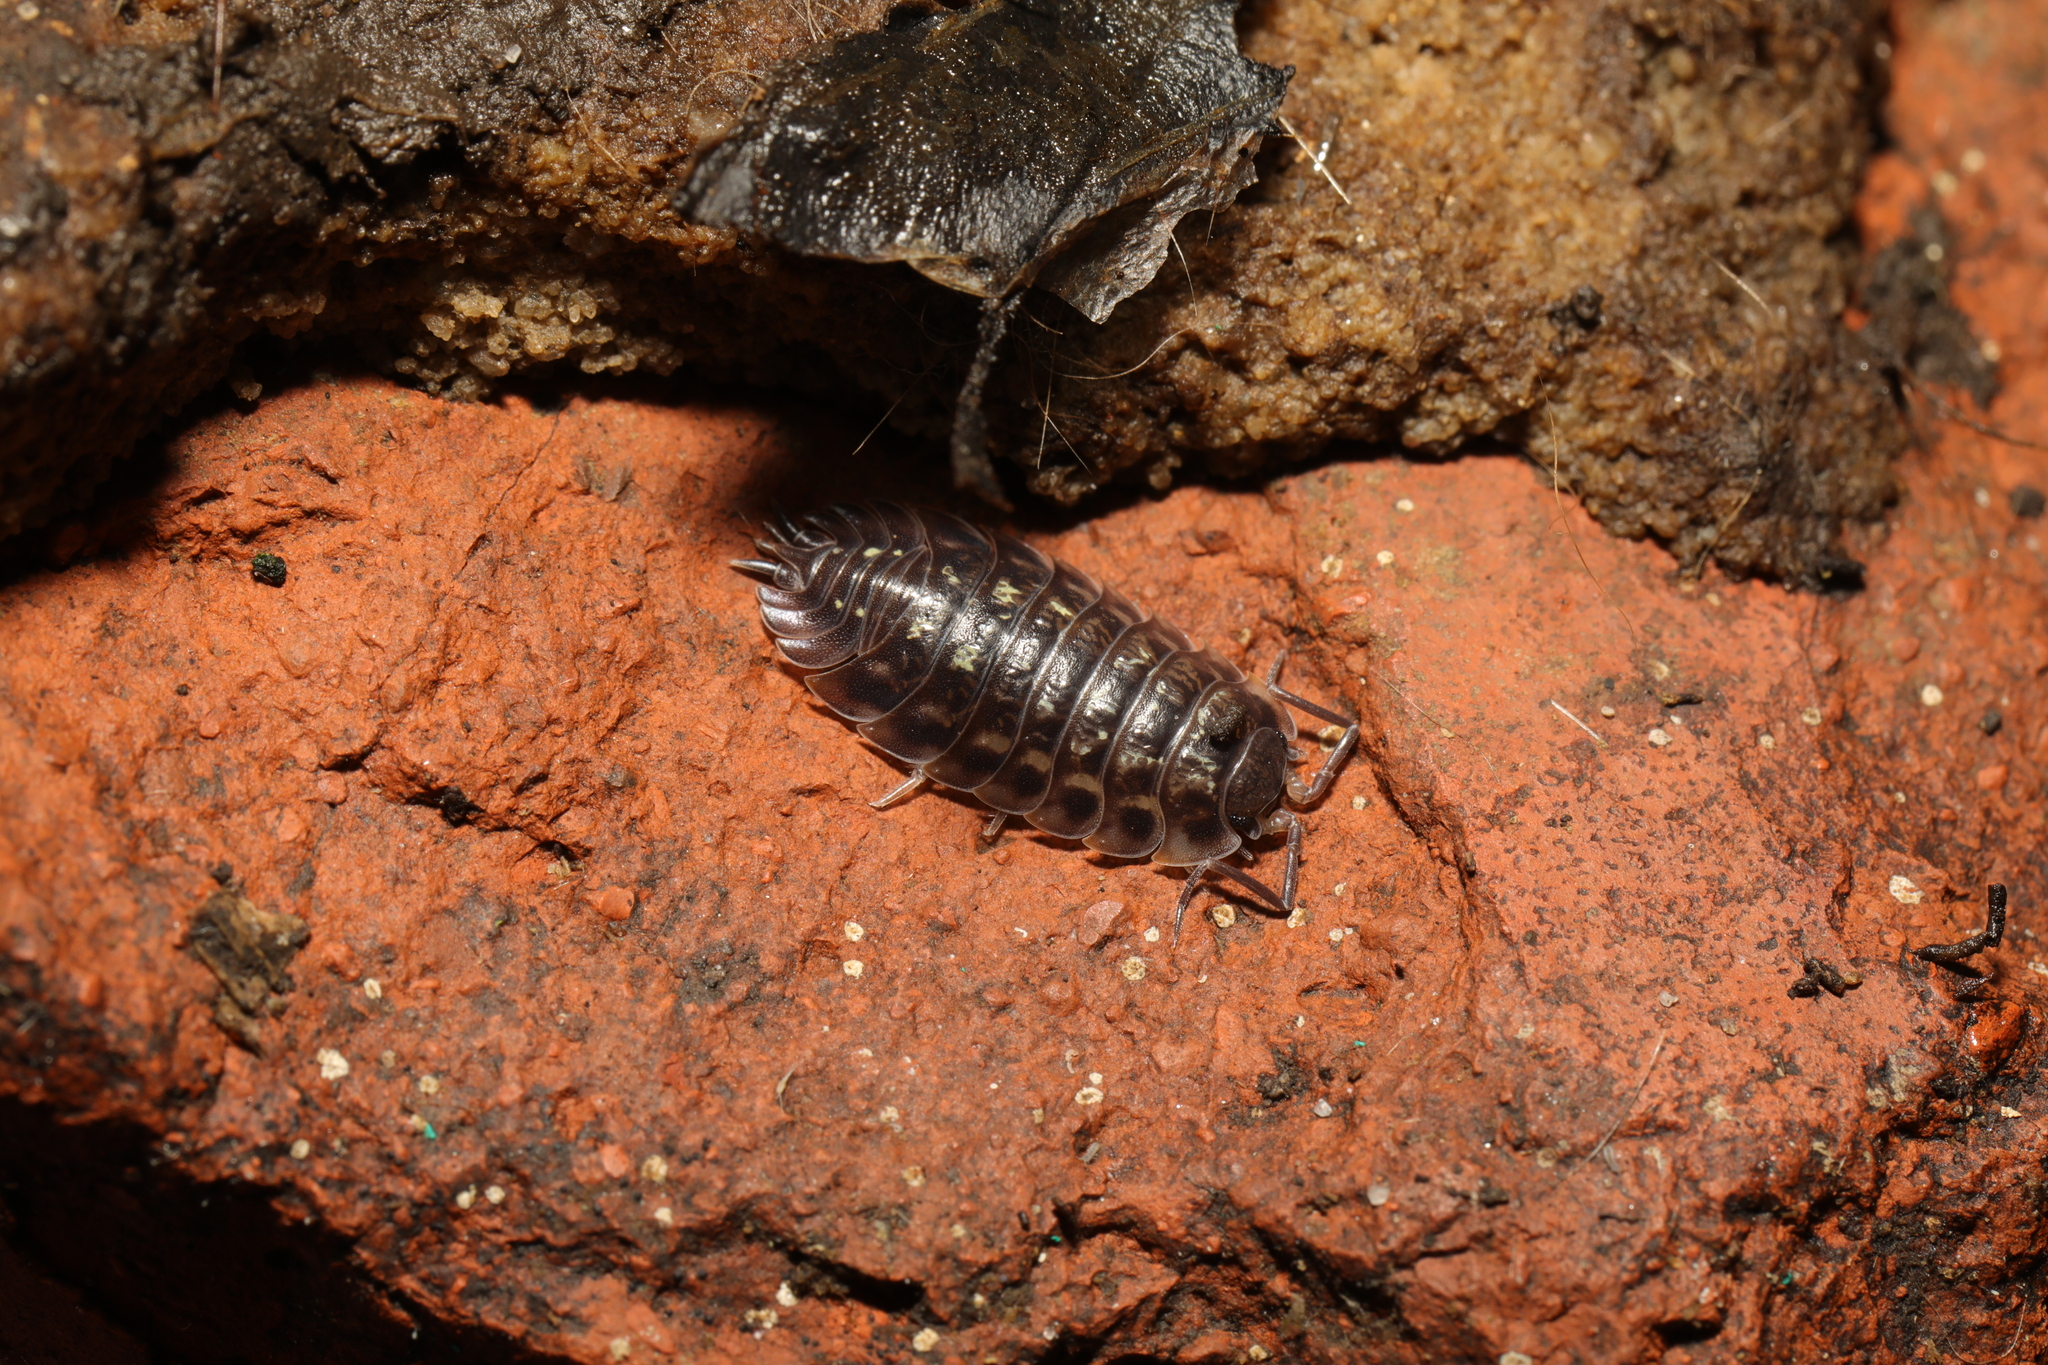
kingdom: Animalia
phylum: Arthropoda
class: Malacostraca
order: Isopoda
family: Oniscidae
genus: Oniscus
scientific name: Oniscus asellus
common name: Common shiny woodlouse
